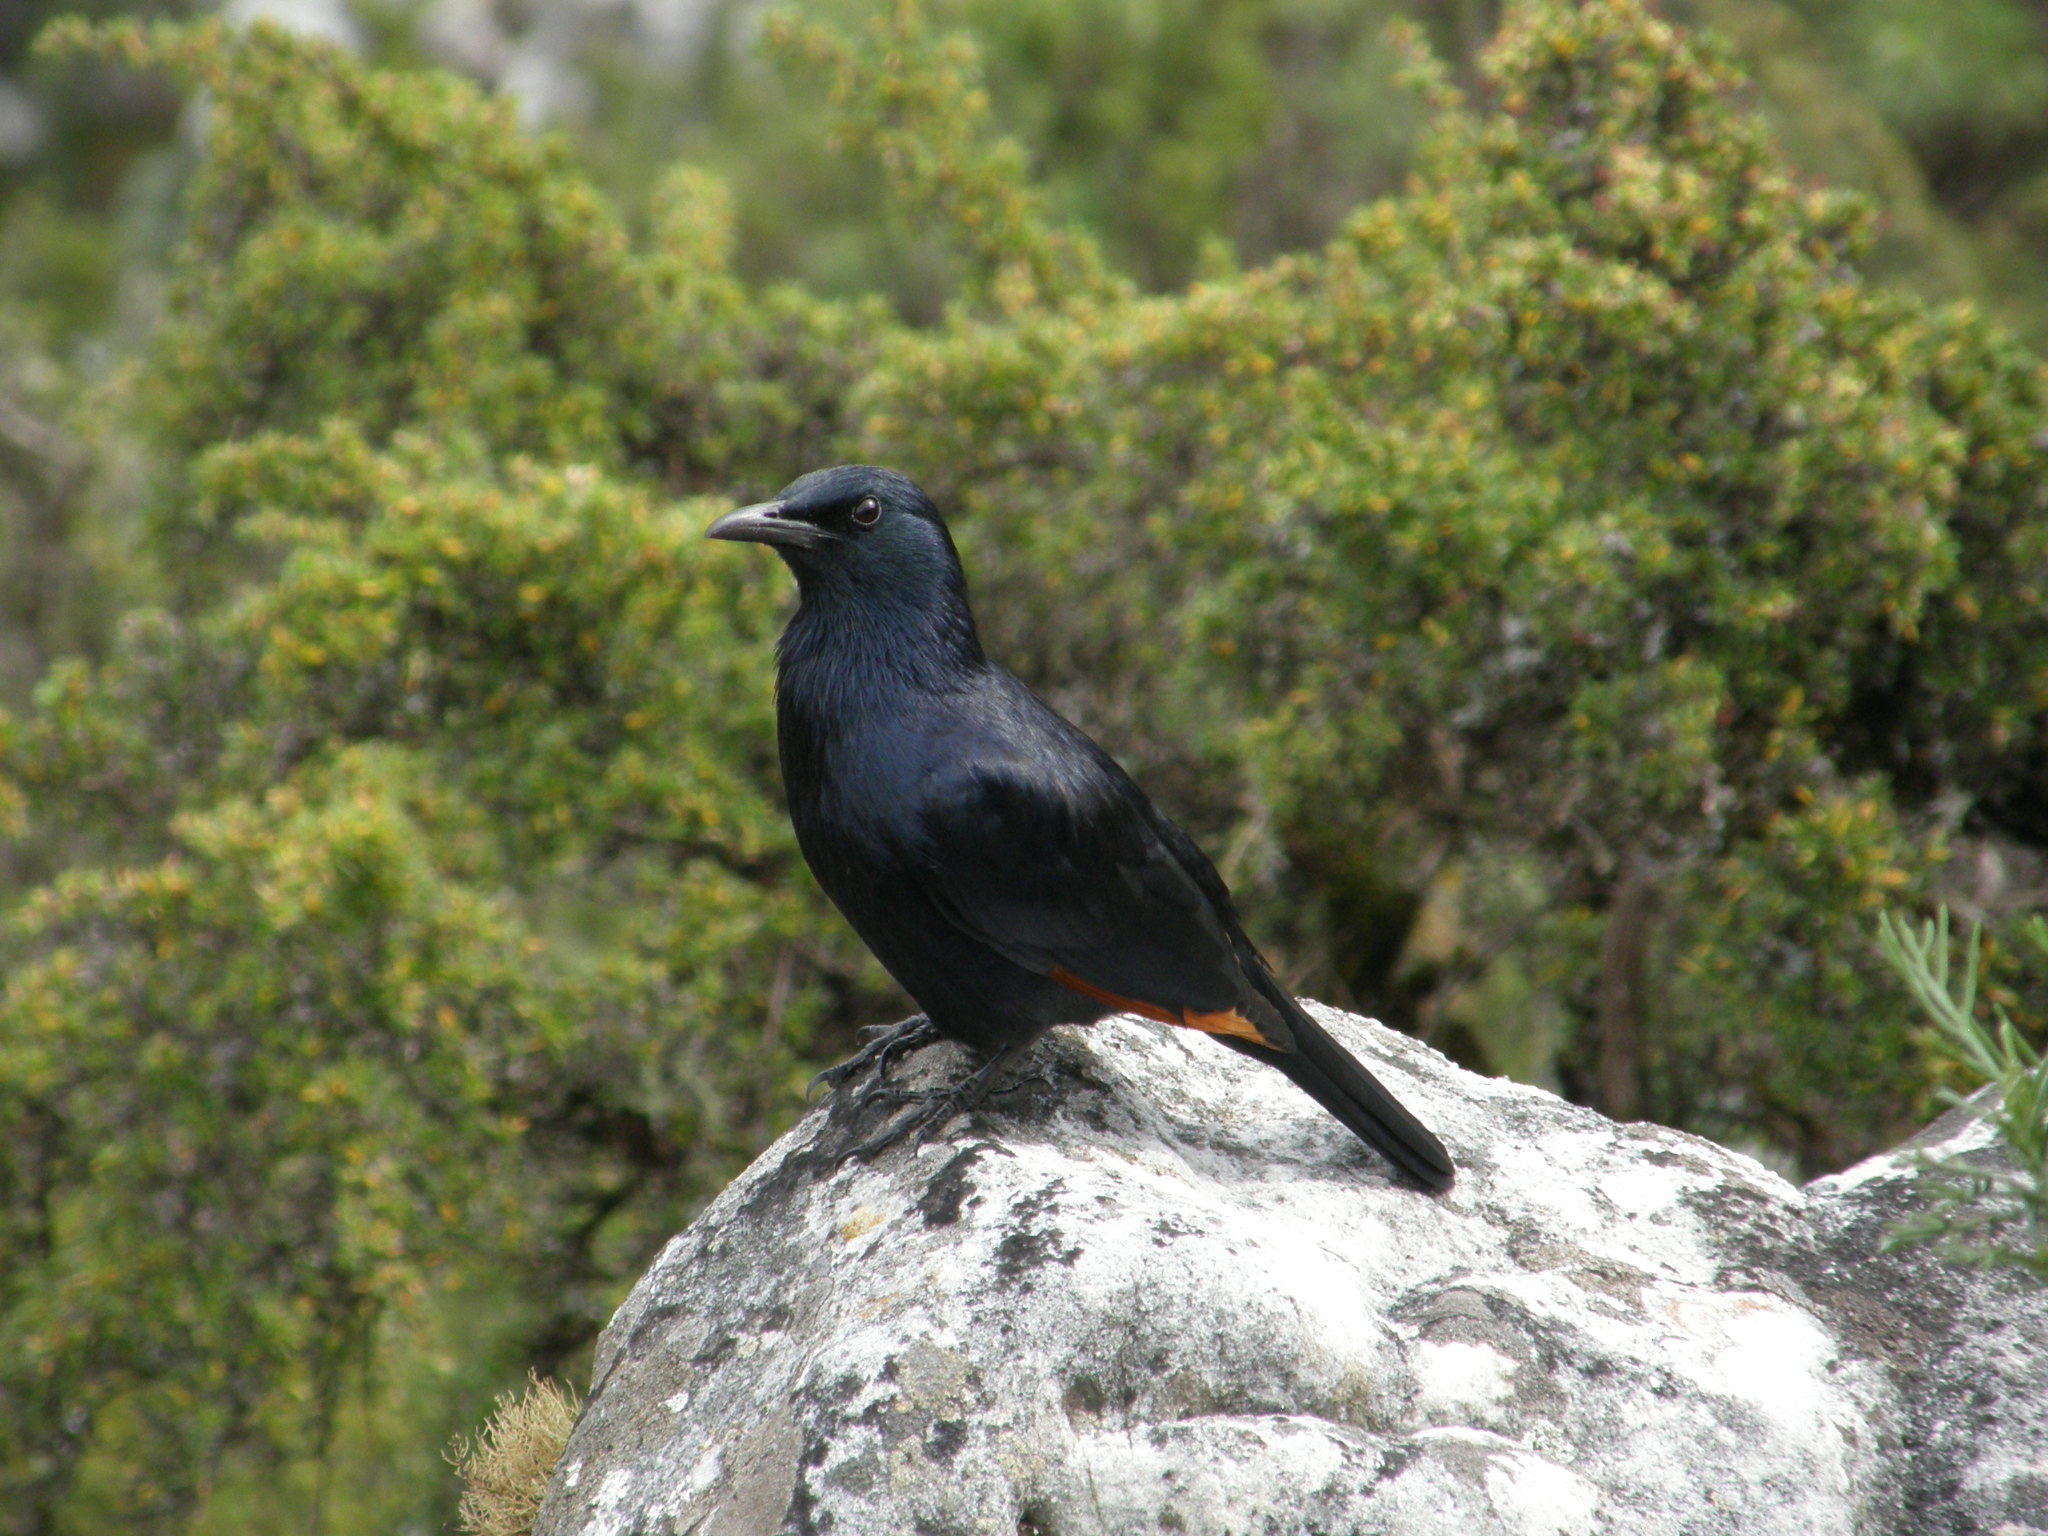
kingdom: Animalia
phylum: Chordata
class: Aves
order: Passeriformes
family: Sturnidae
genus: Onychognathus
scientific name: Onychognathus morio
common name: Red-winged starling
